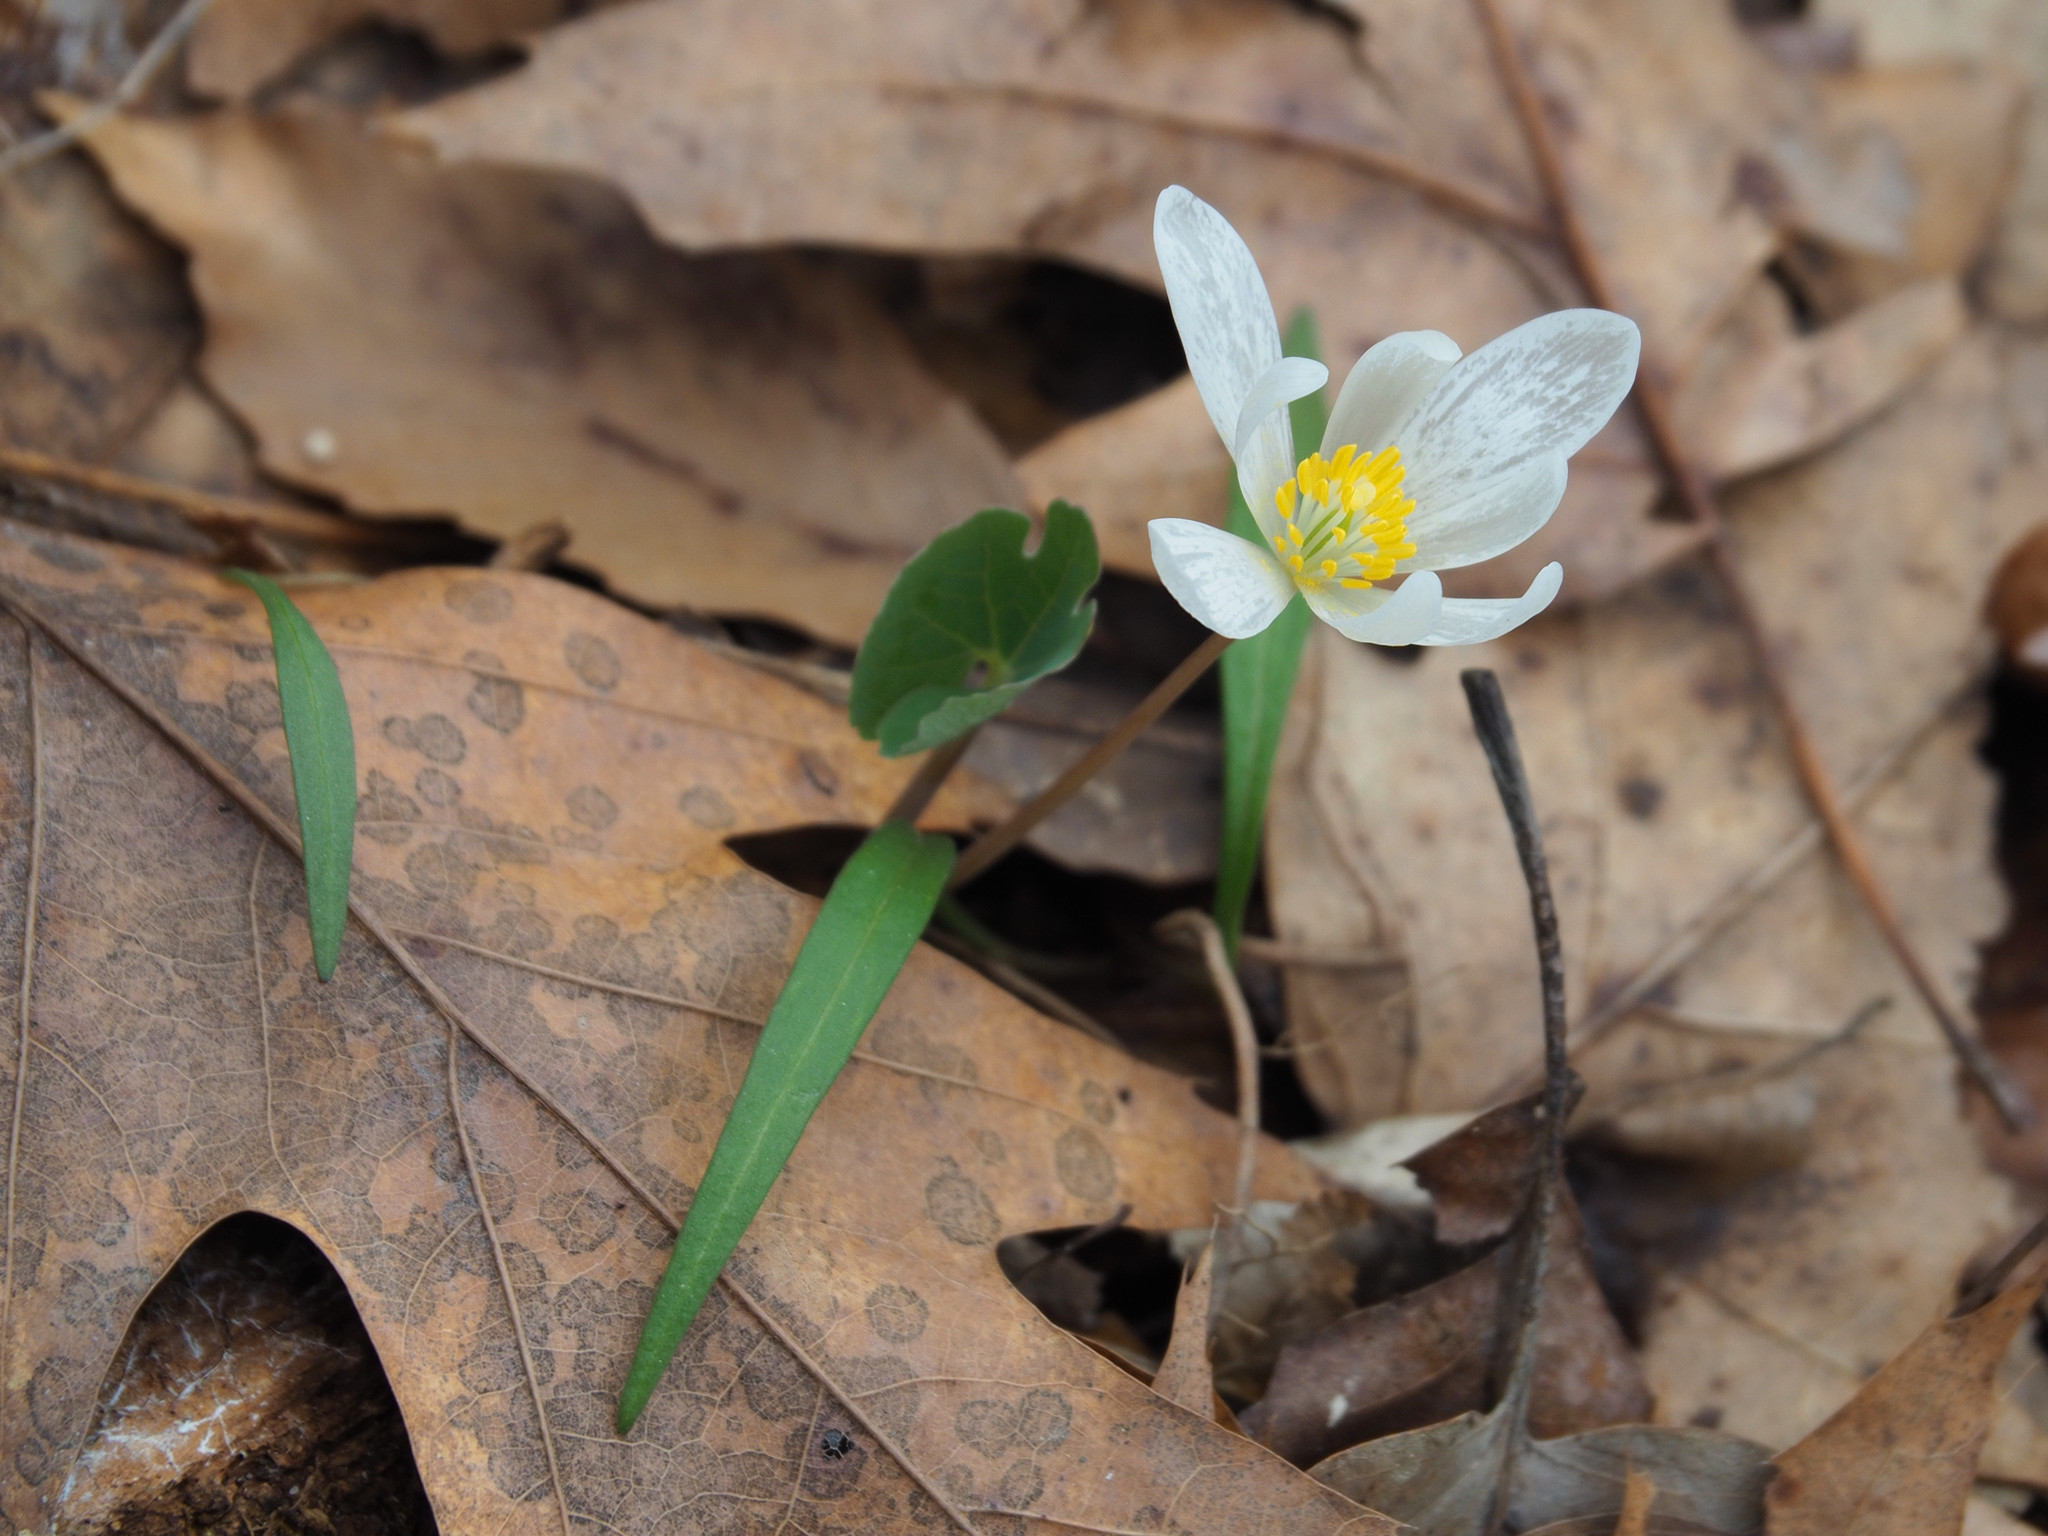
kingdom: Plantae
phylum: Tracheophyta
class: Magnoliopsida
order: Ranunculales
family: Papaveraceae
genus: Sanguinaria
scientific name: Sanguinaria canadensis
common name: Bloodroot
